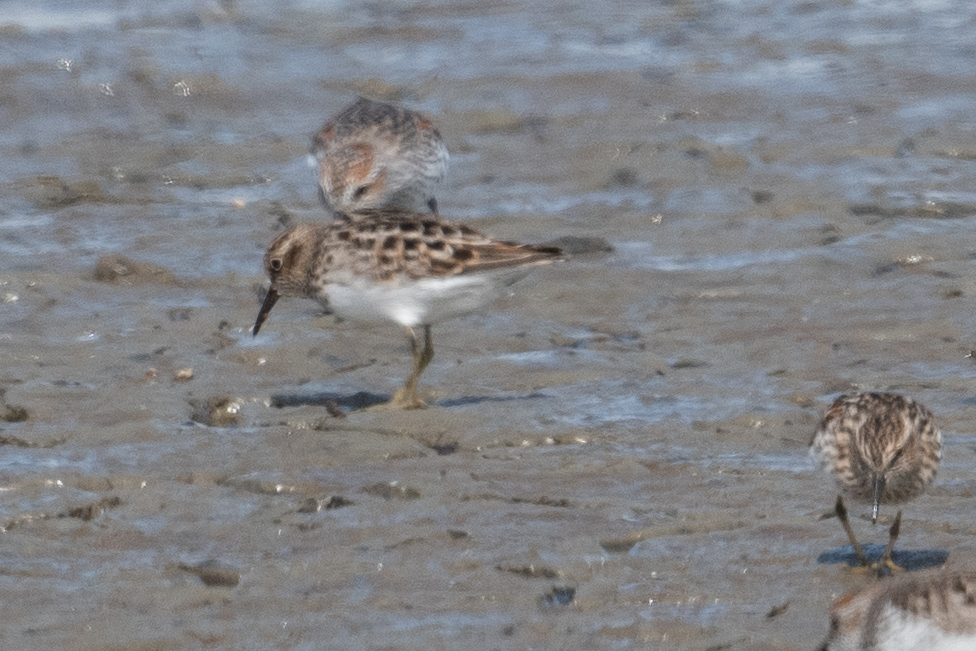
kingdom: Animalia
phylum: Chordata
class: Aves
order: Charadriiformes
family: Scolopacidae
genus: Calidris
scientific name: Calidris minutilla
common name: Least sandpiper
